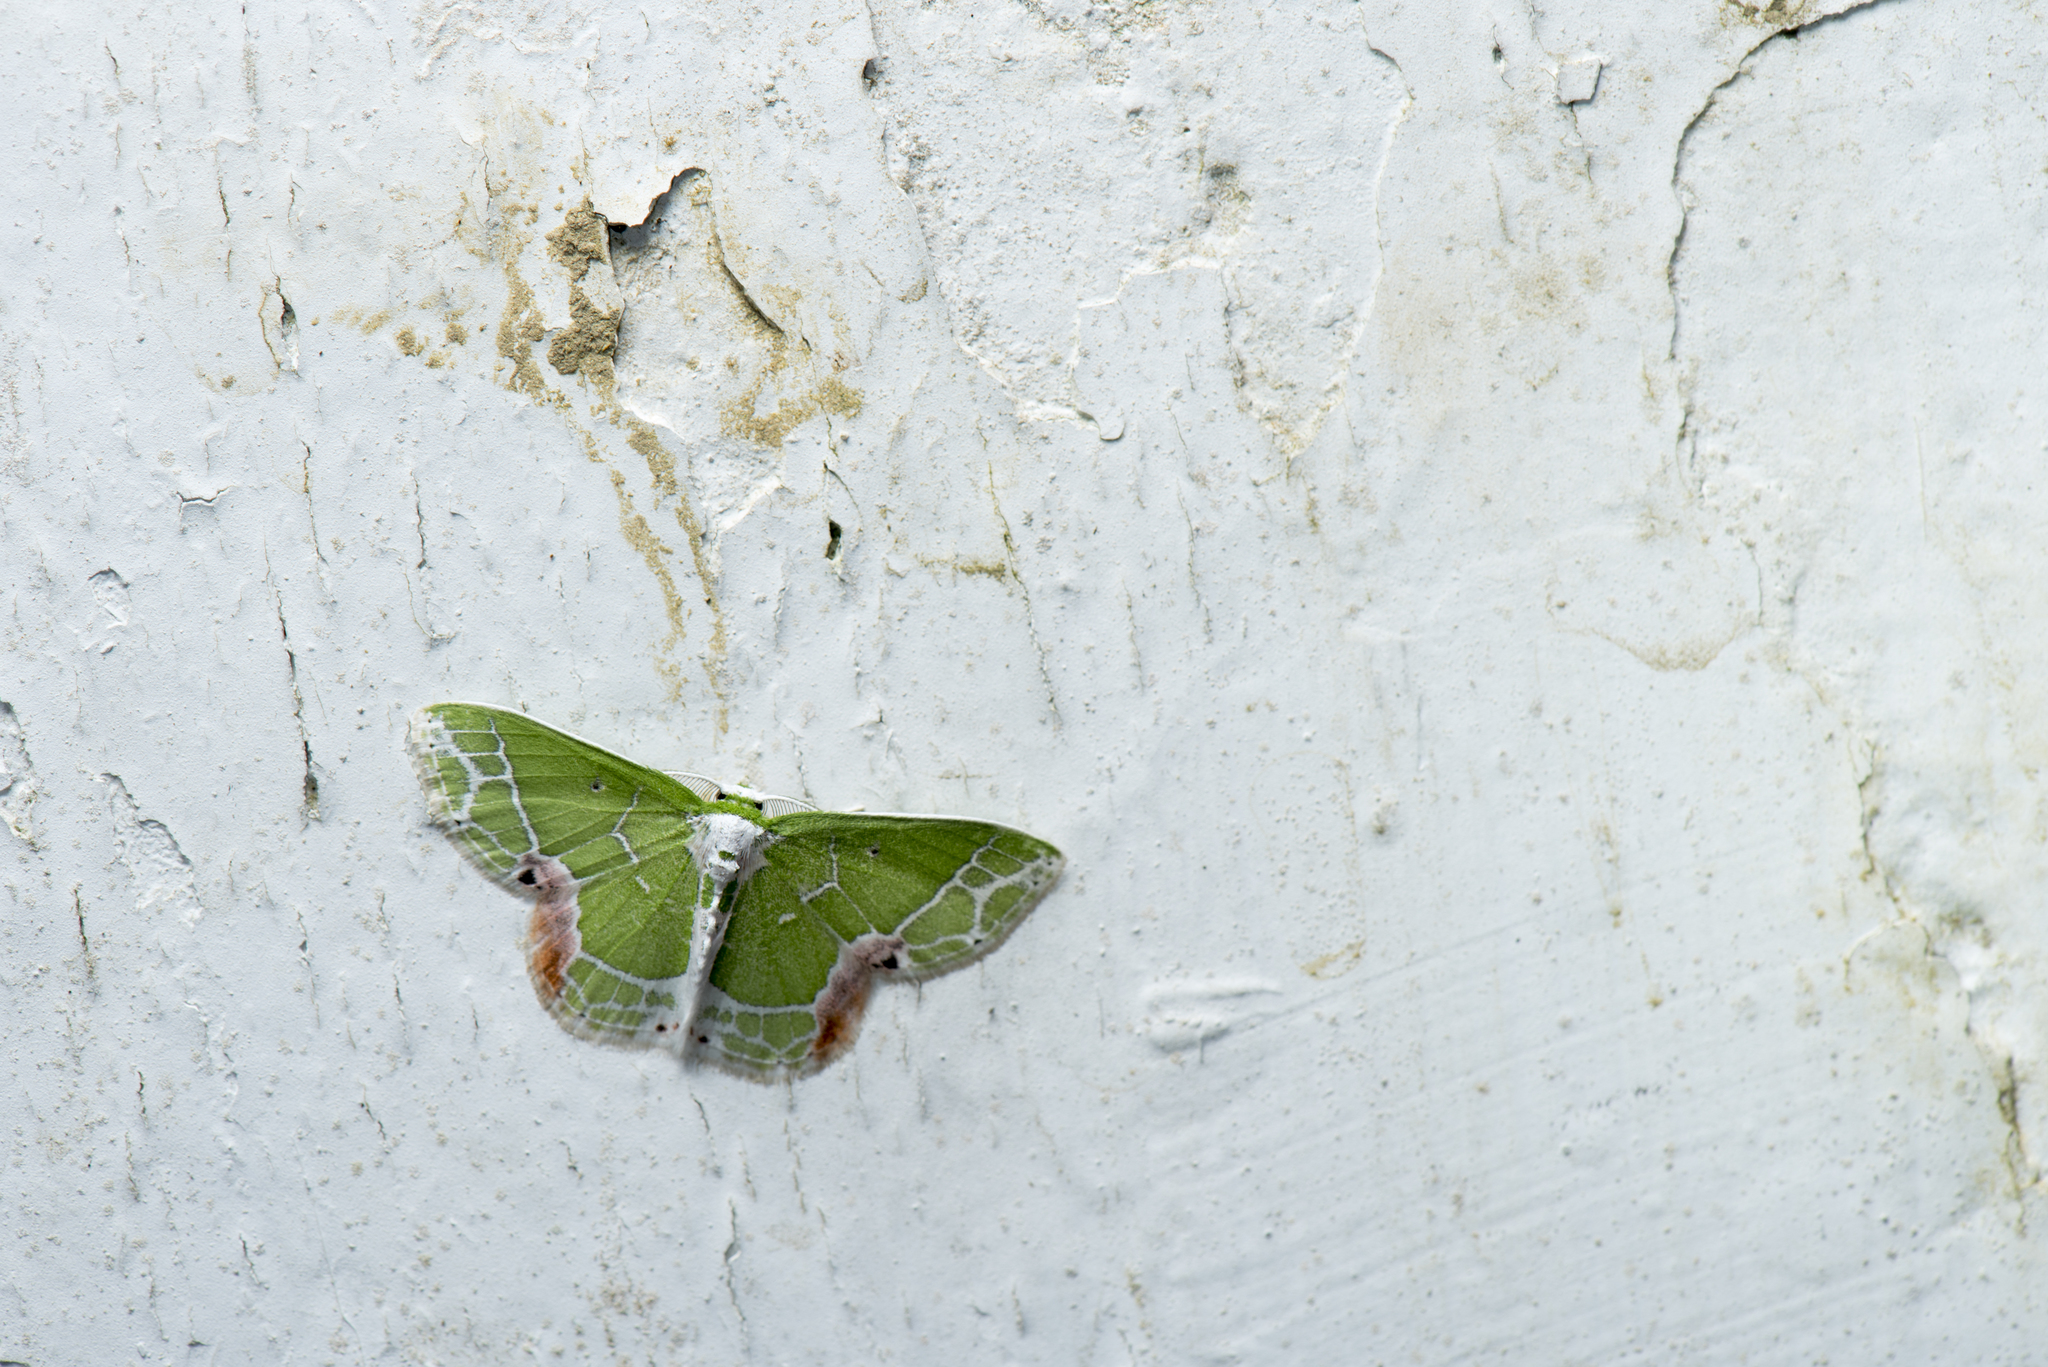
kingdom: Animalia
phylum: Arthropoda
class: Insecta
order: Lepidoptera
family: Geometridae
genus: Protuliocnemis
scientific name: Protuliocnemis castalaria
